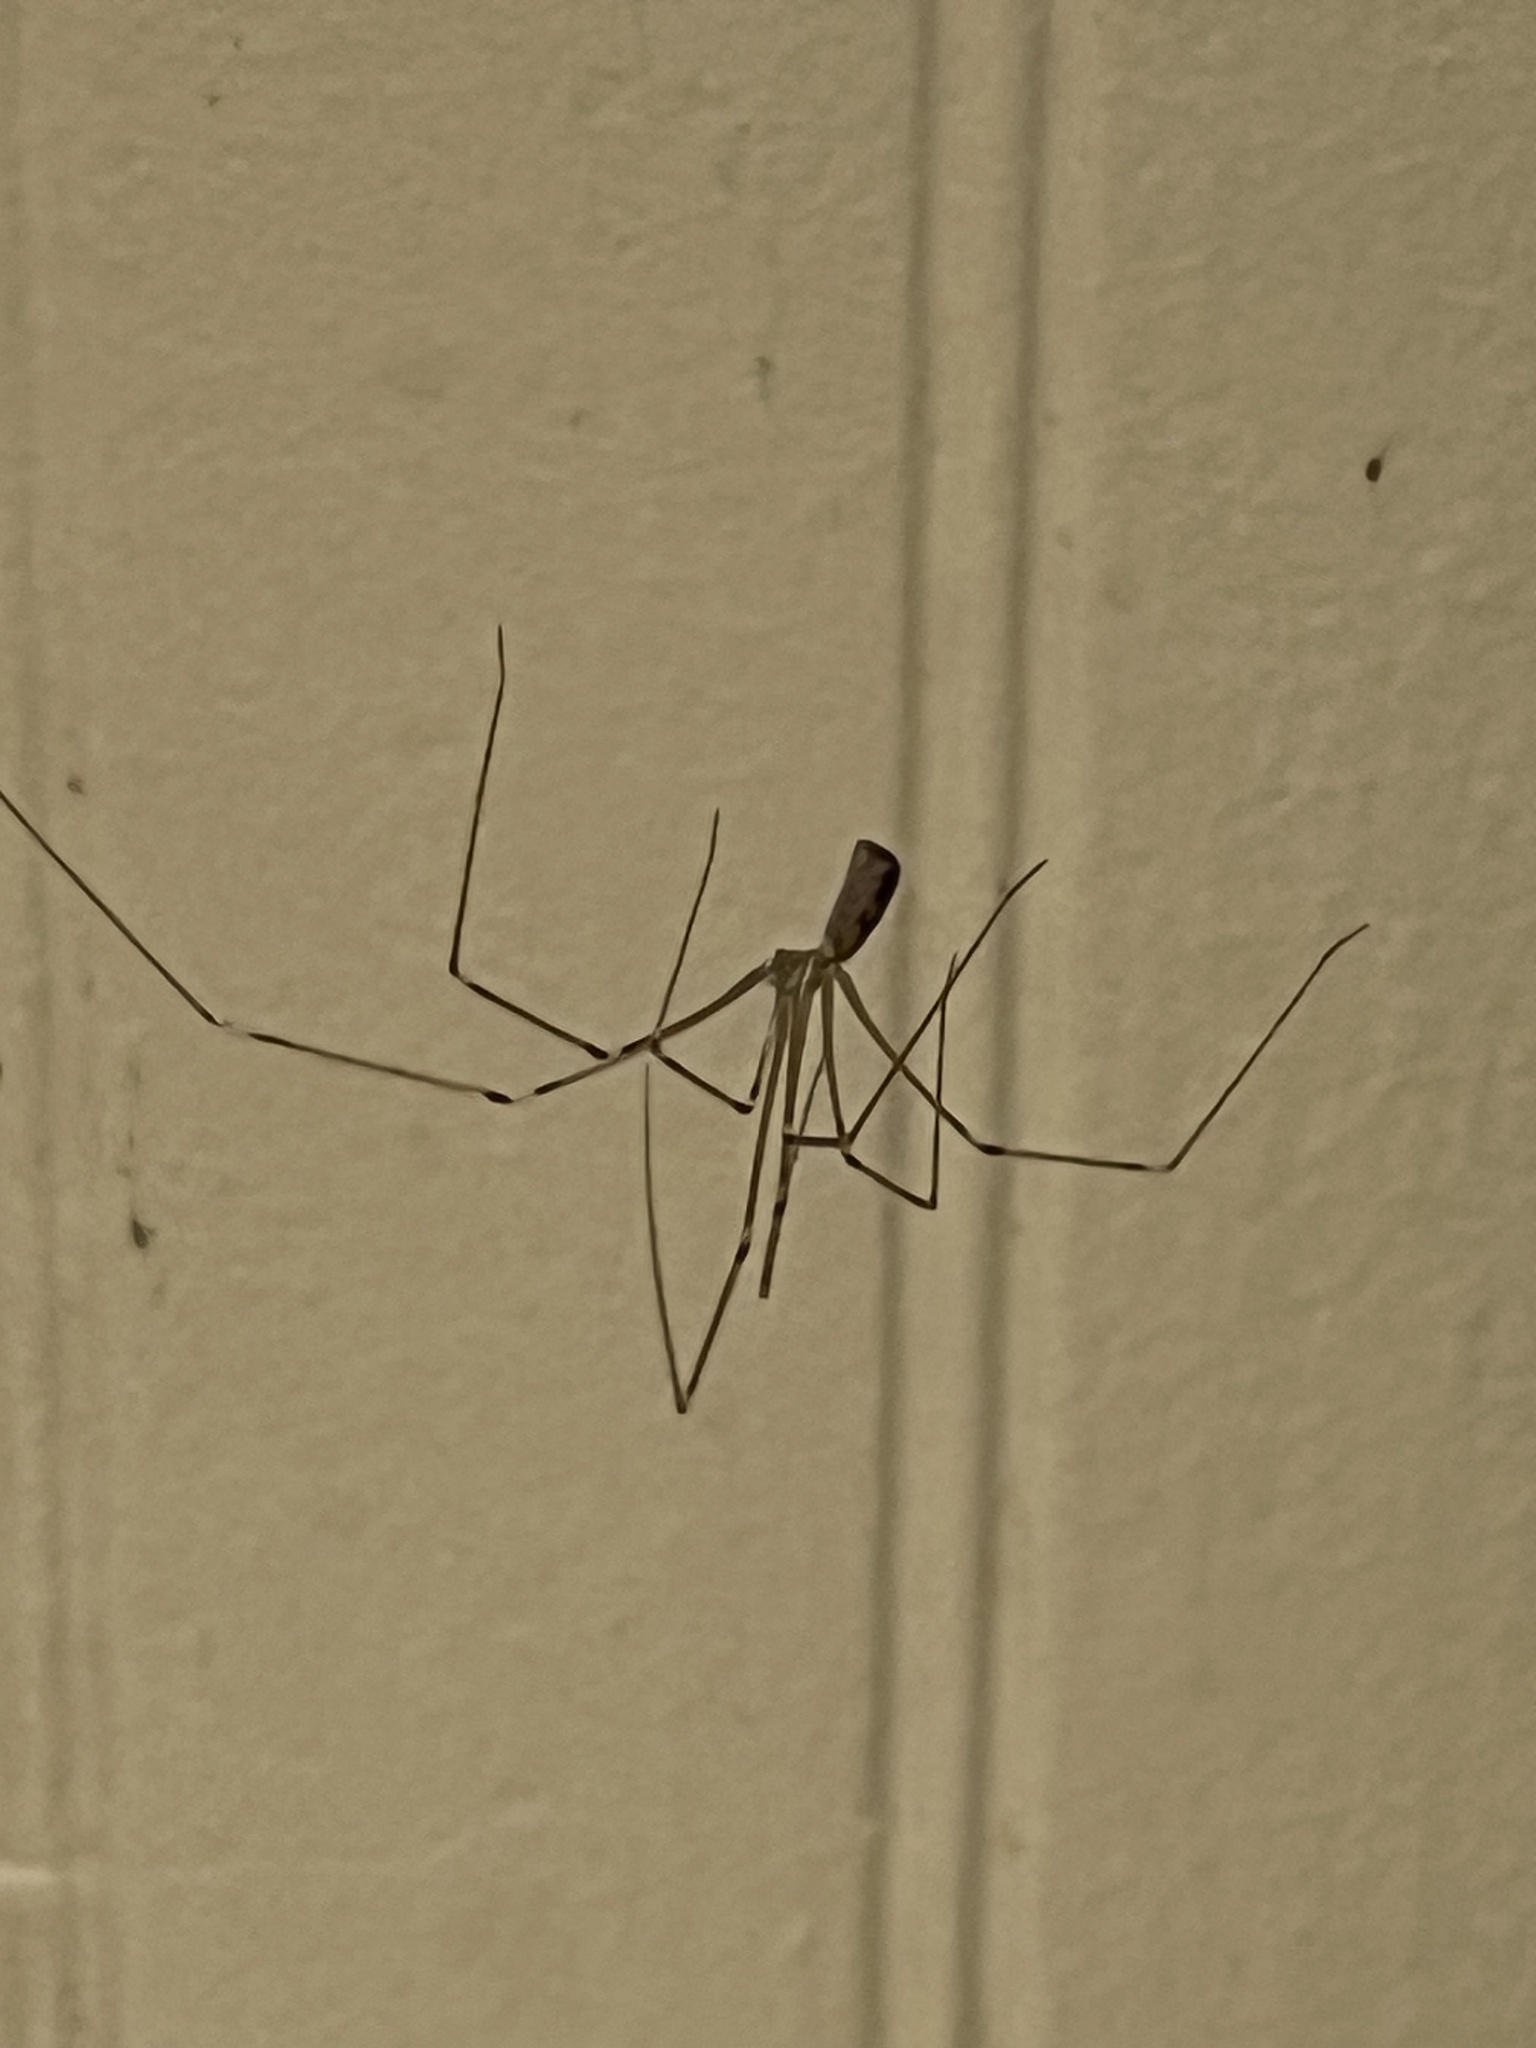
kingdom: Animalia
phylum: Arthropoda
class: Arachnida
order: Araneae
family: Pholcidae
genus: Pholcus
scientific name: Pholcus phalangioides
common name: Longbodied cellar spider
